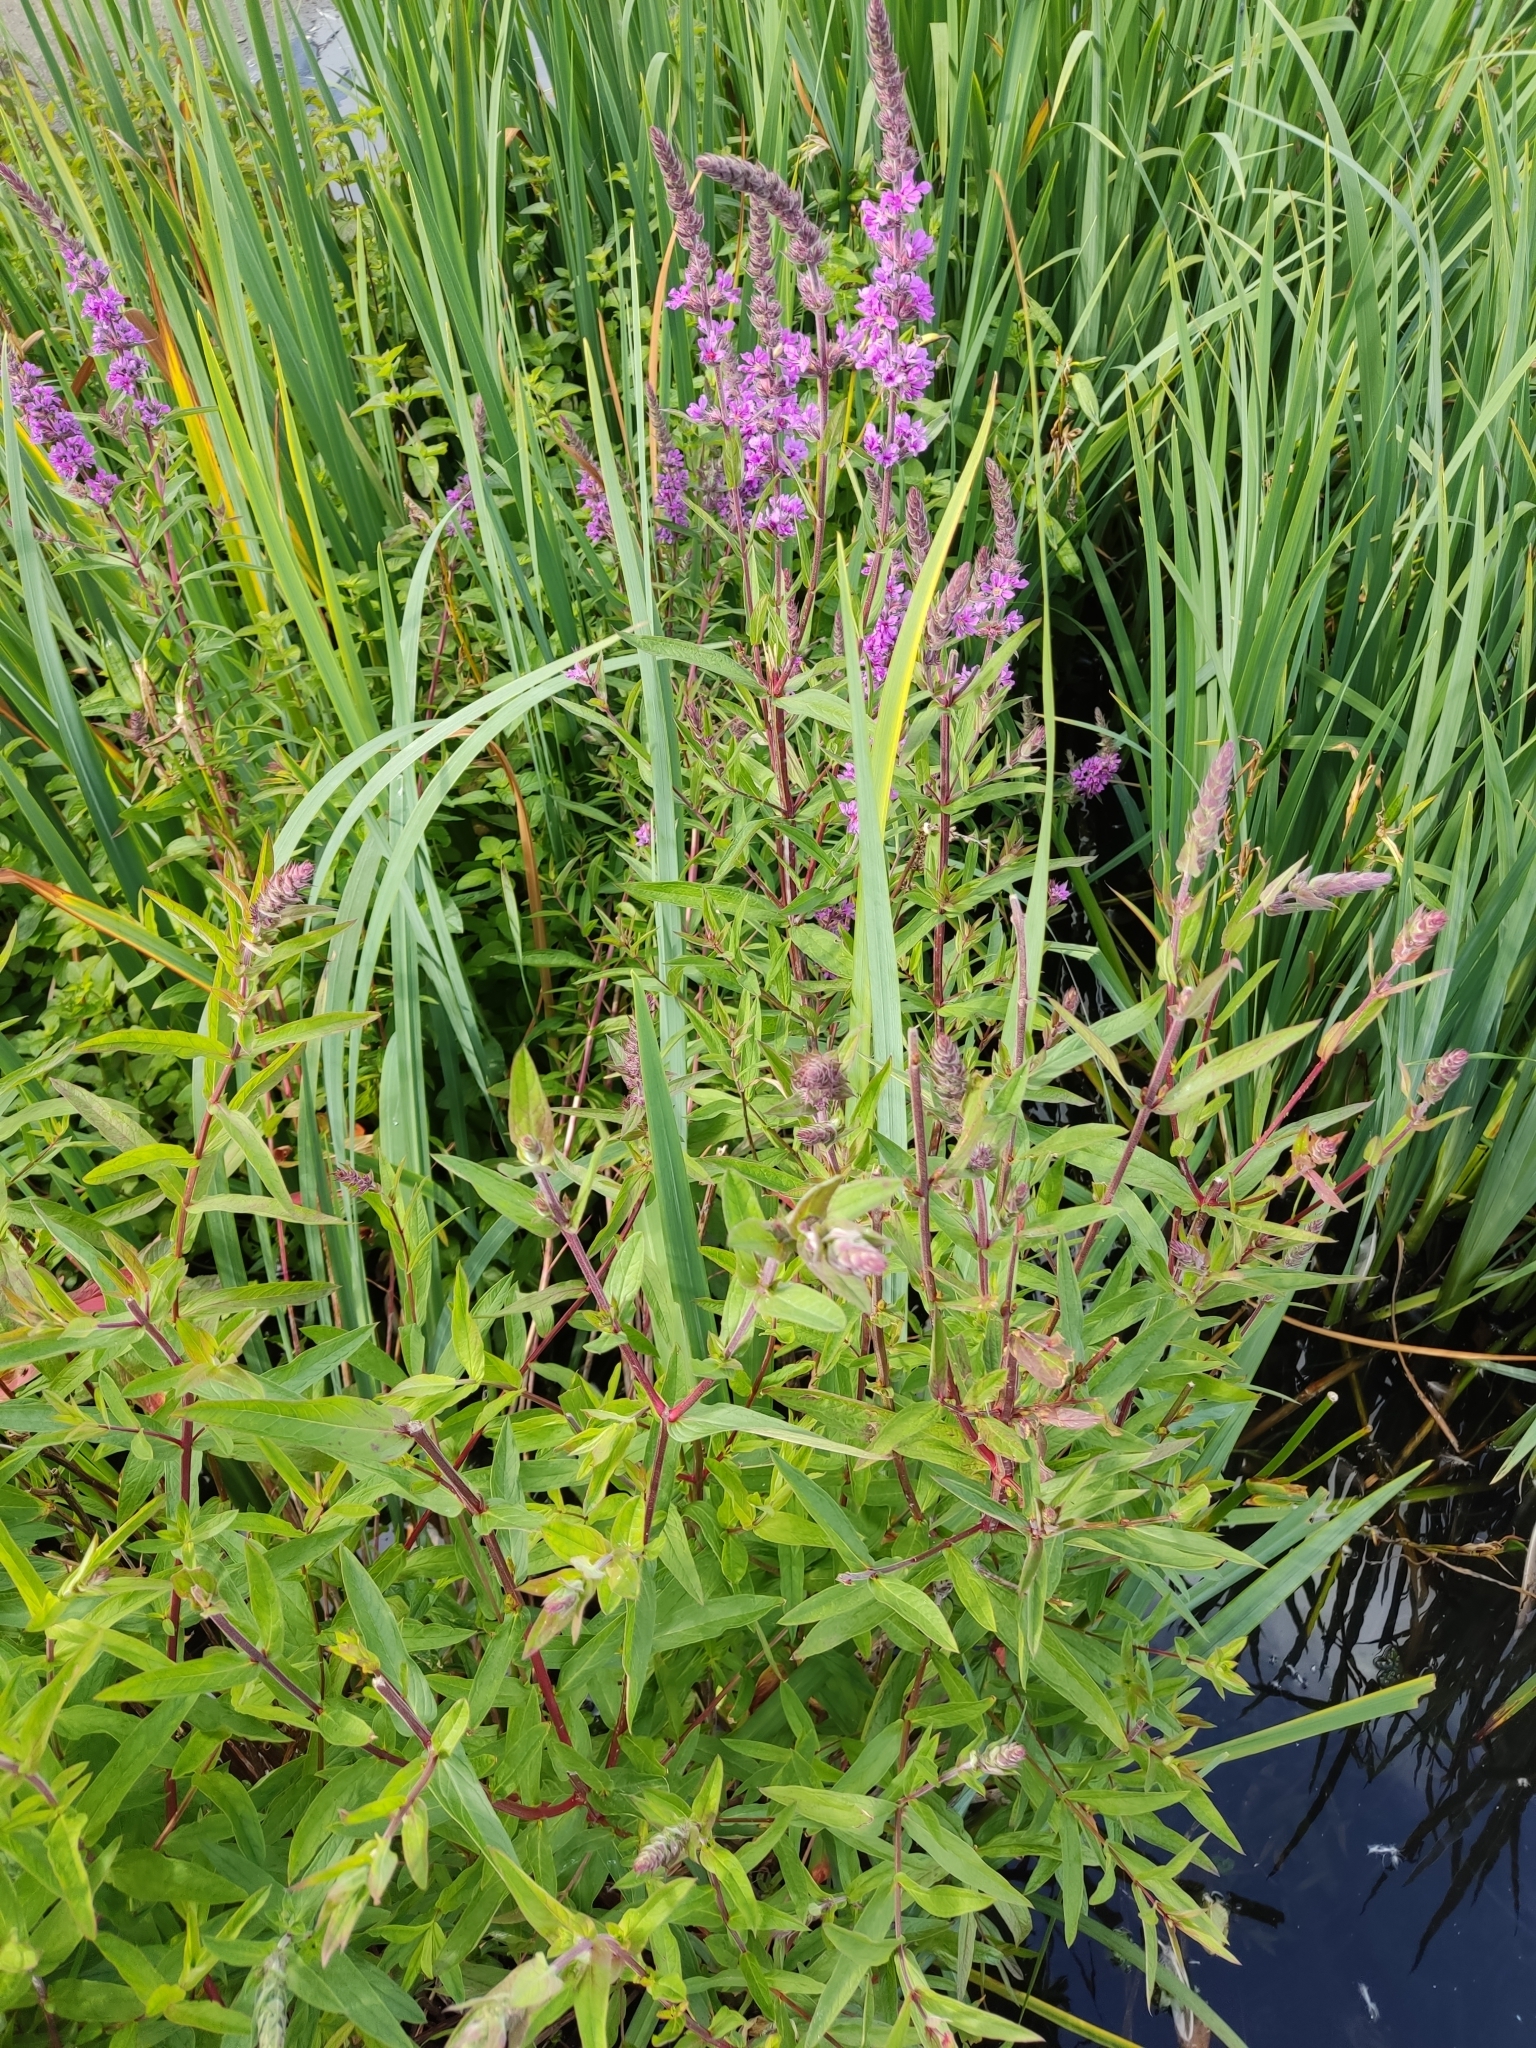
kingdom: Plantae
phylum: Tracheophyta
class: Magnoliopsida
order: Myrtales
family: Lythraceae
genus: Lythrum
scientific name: Lythrum salicaria
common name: Purple loosestrife
